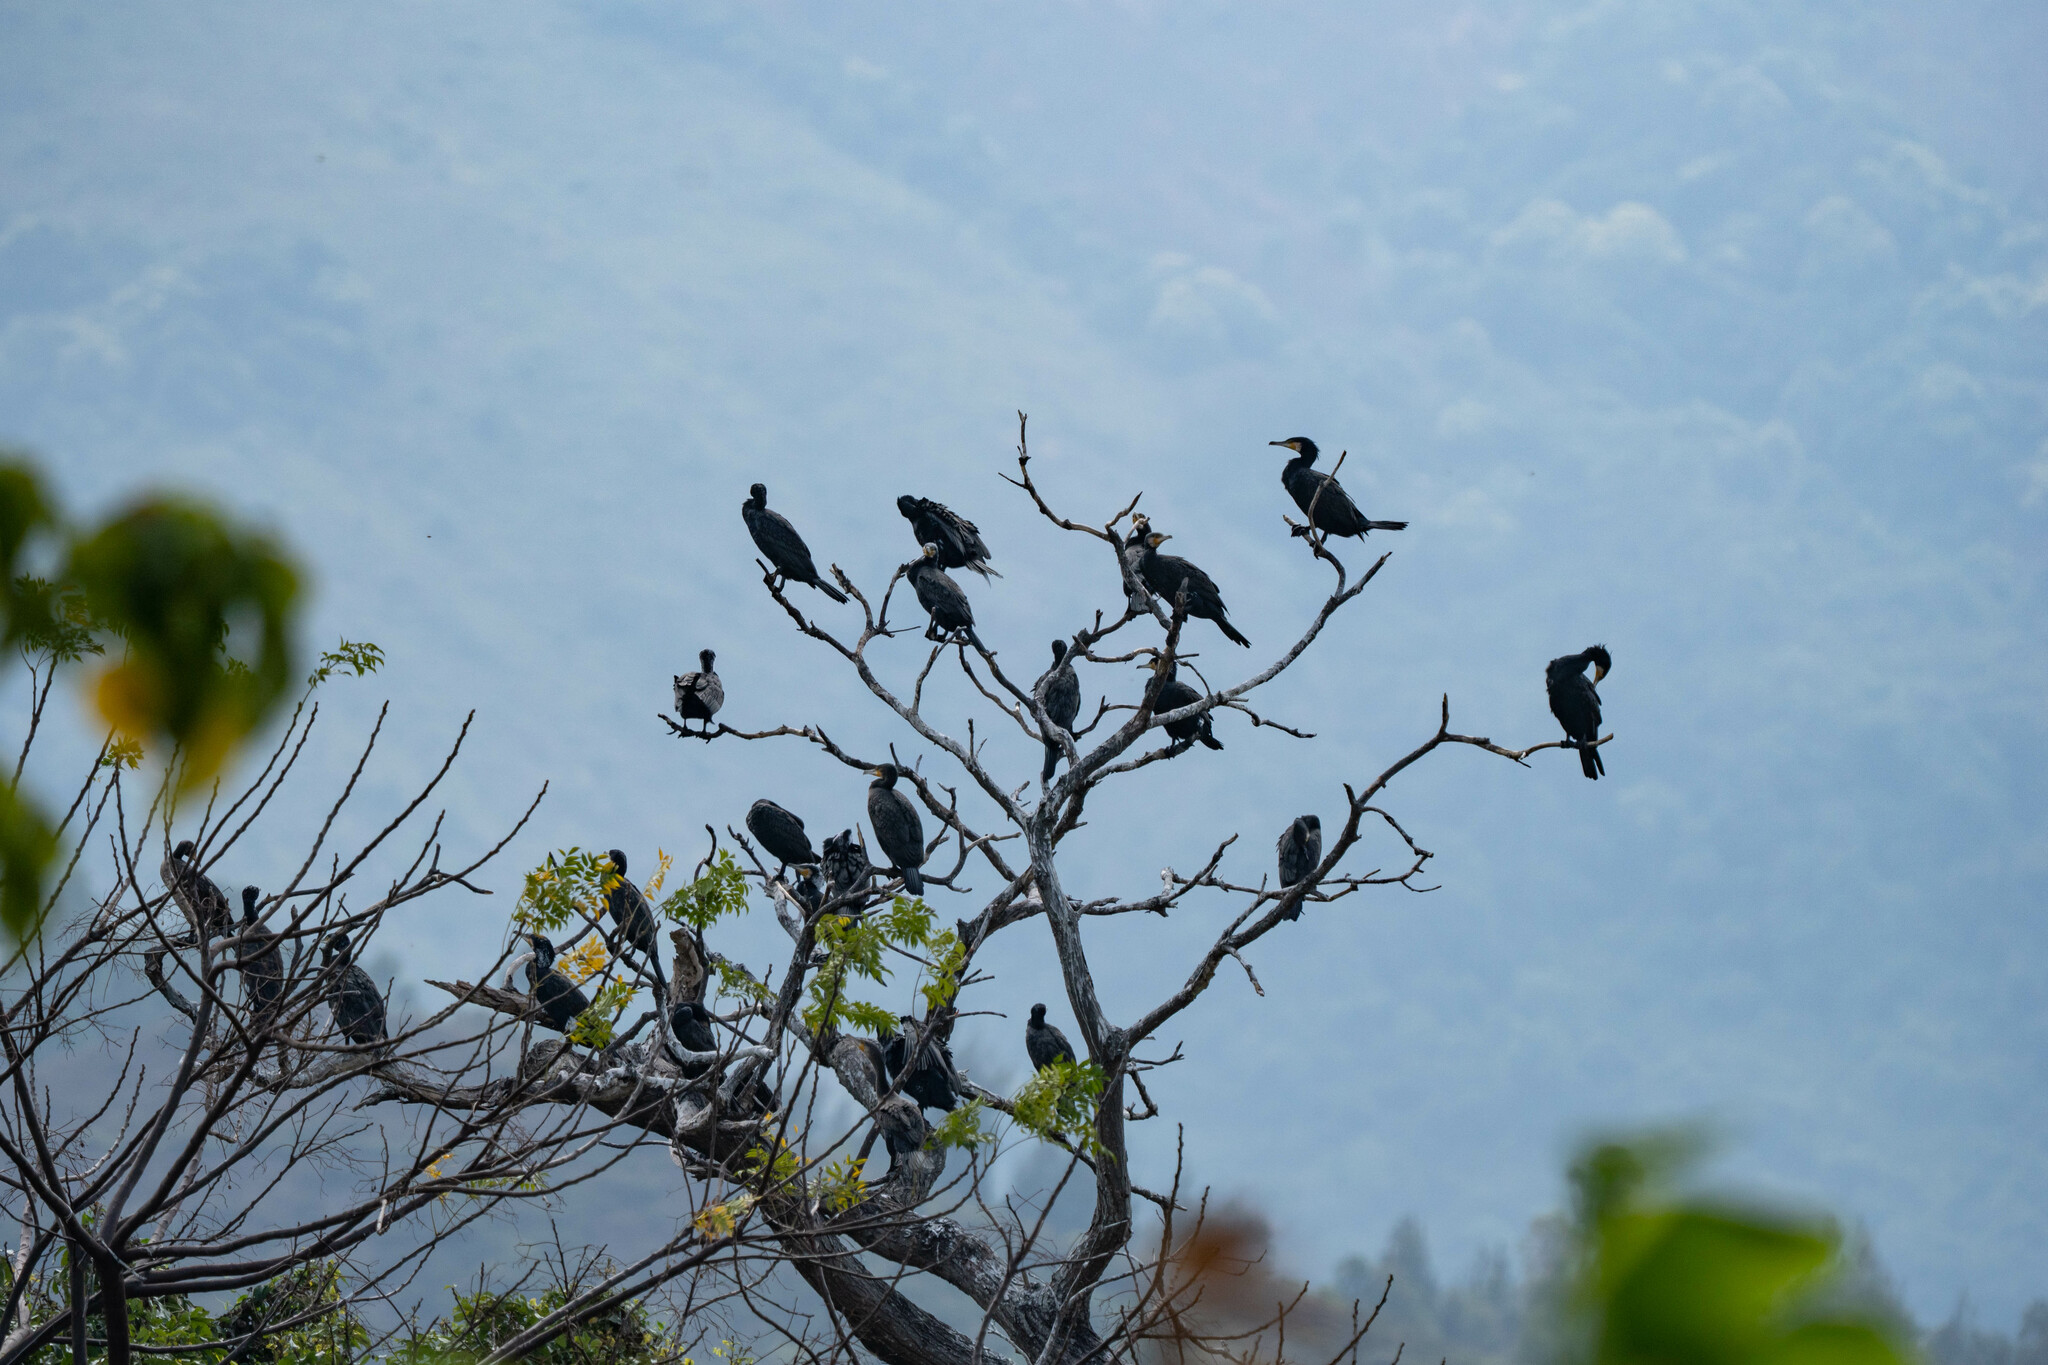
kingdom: Animalia
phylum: Chordata
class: Aves
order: Suliformes
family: Phalacrocoracidae
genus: Phalacrocorax
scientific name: Phalacrocorax carbo
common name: Great cormorant
